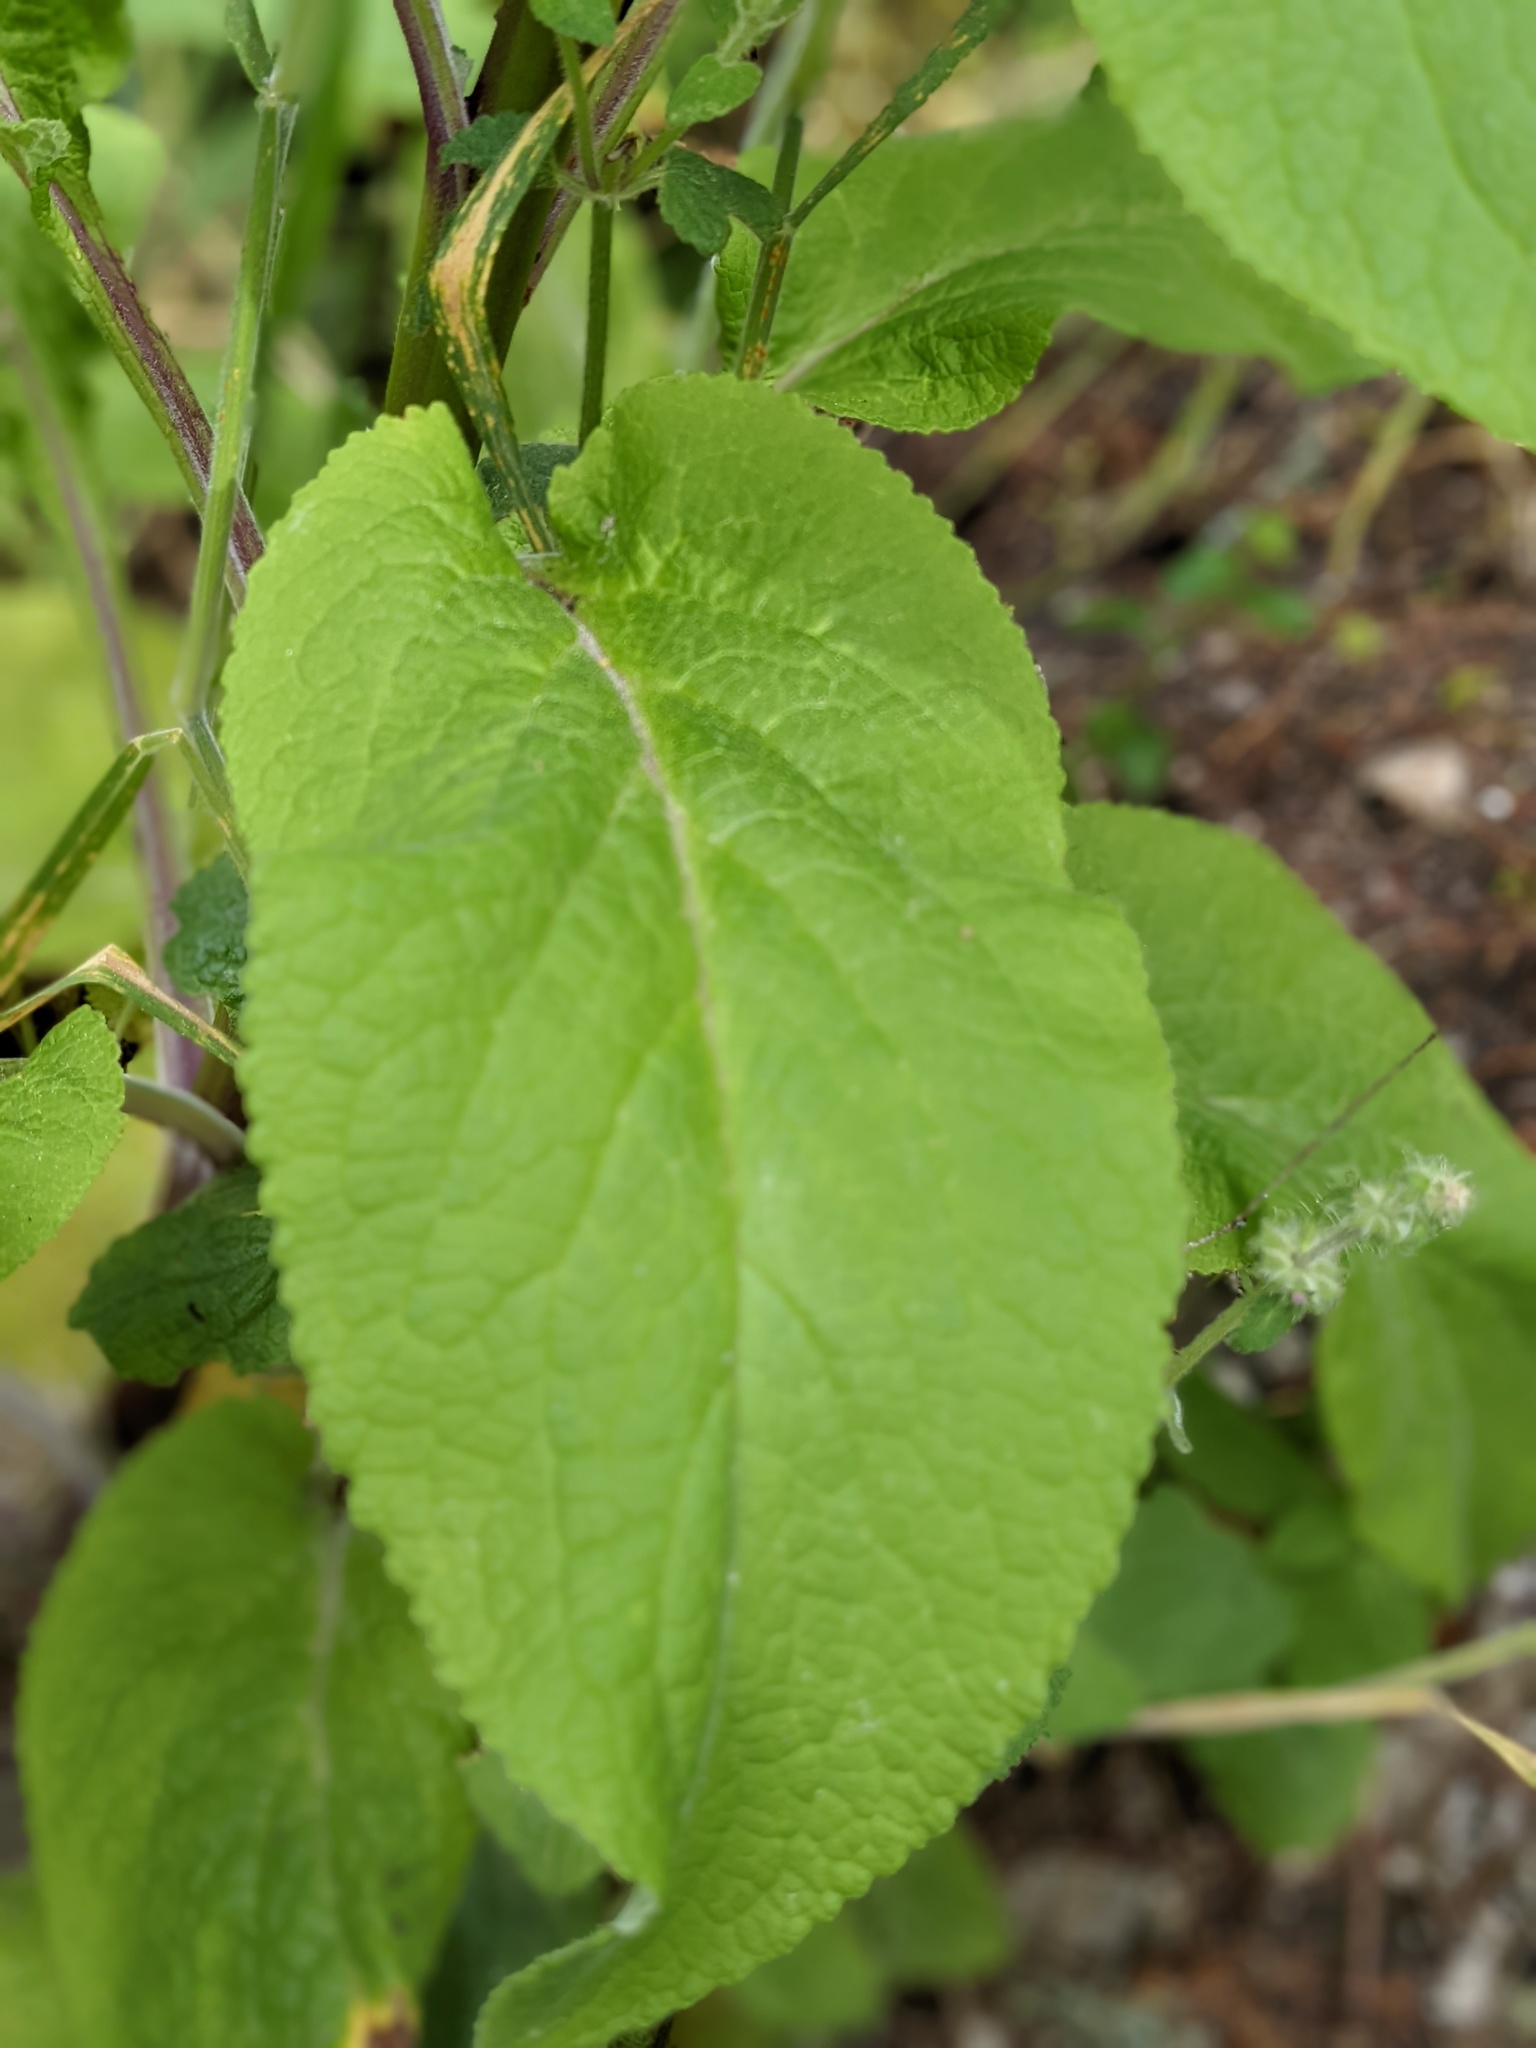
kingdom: Plantae
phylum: Tracheophyta
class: Magnoliopsida
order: Lamiales
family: Plantaginaceae
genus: Digitalis
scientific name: Digitalis purpurea
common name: Foxglove
